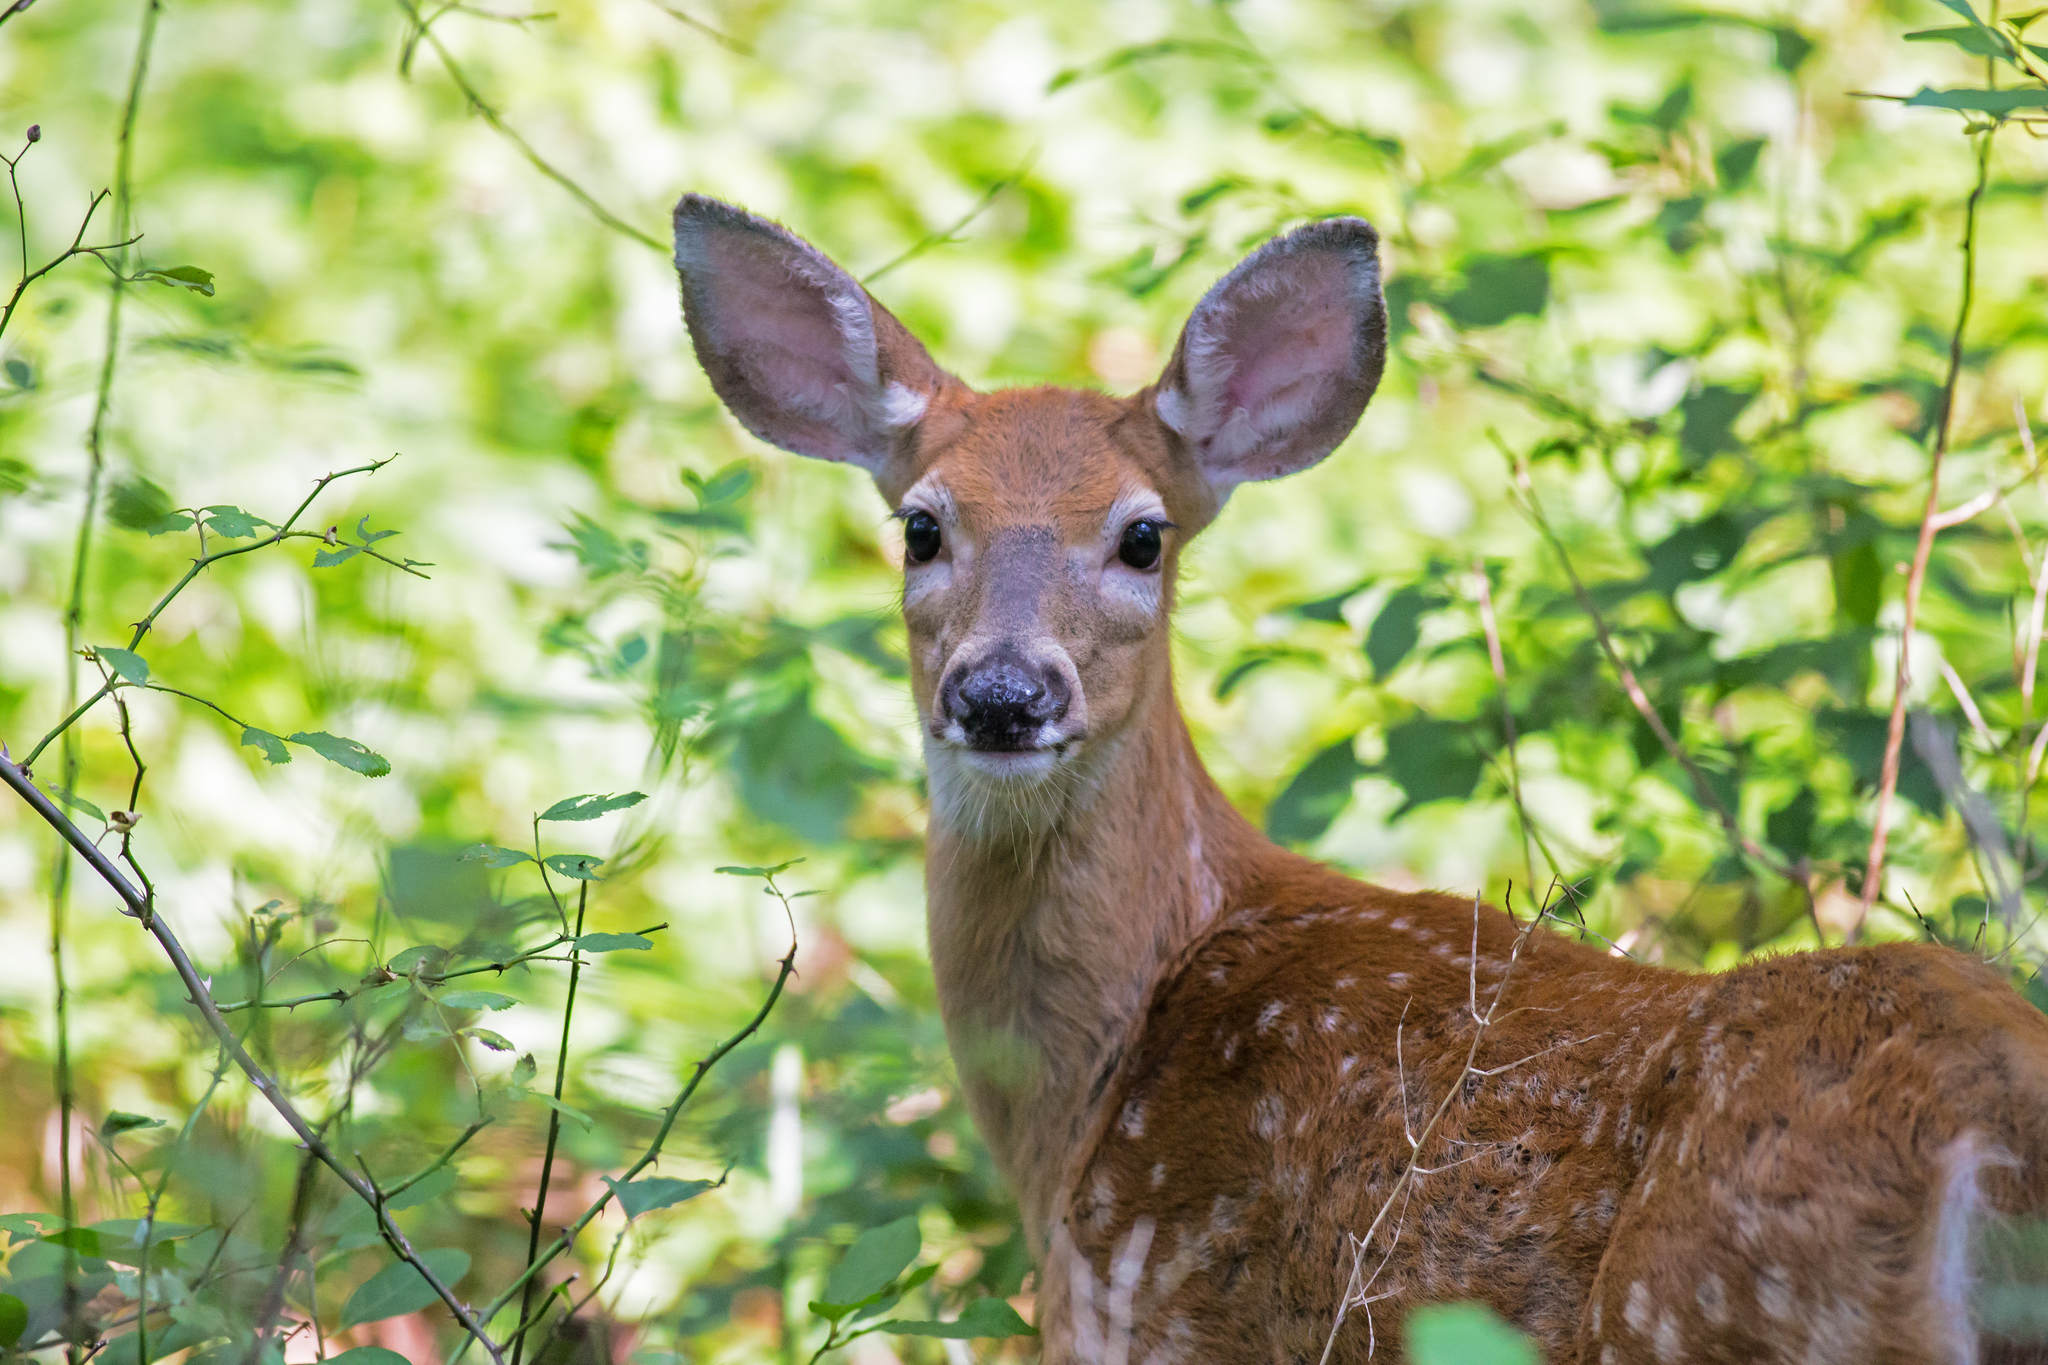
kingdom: Animalia
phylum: Chordata
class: Mammalia
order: Artiodactyla
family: Cervidae
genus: Odocoileus
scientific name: Odocoileus virginianus
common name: White-tailed deer
